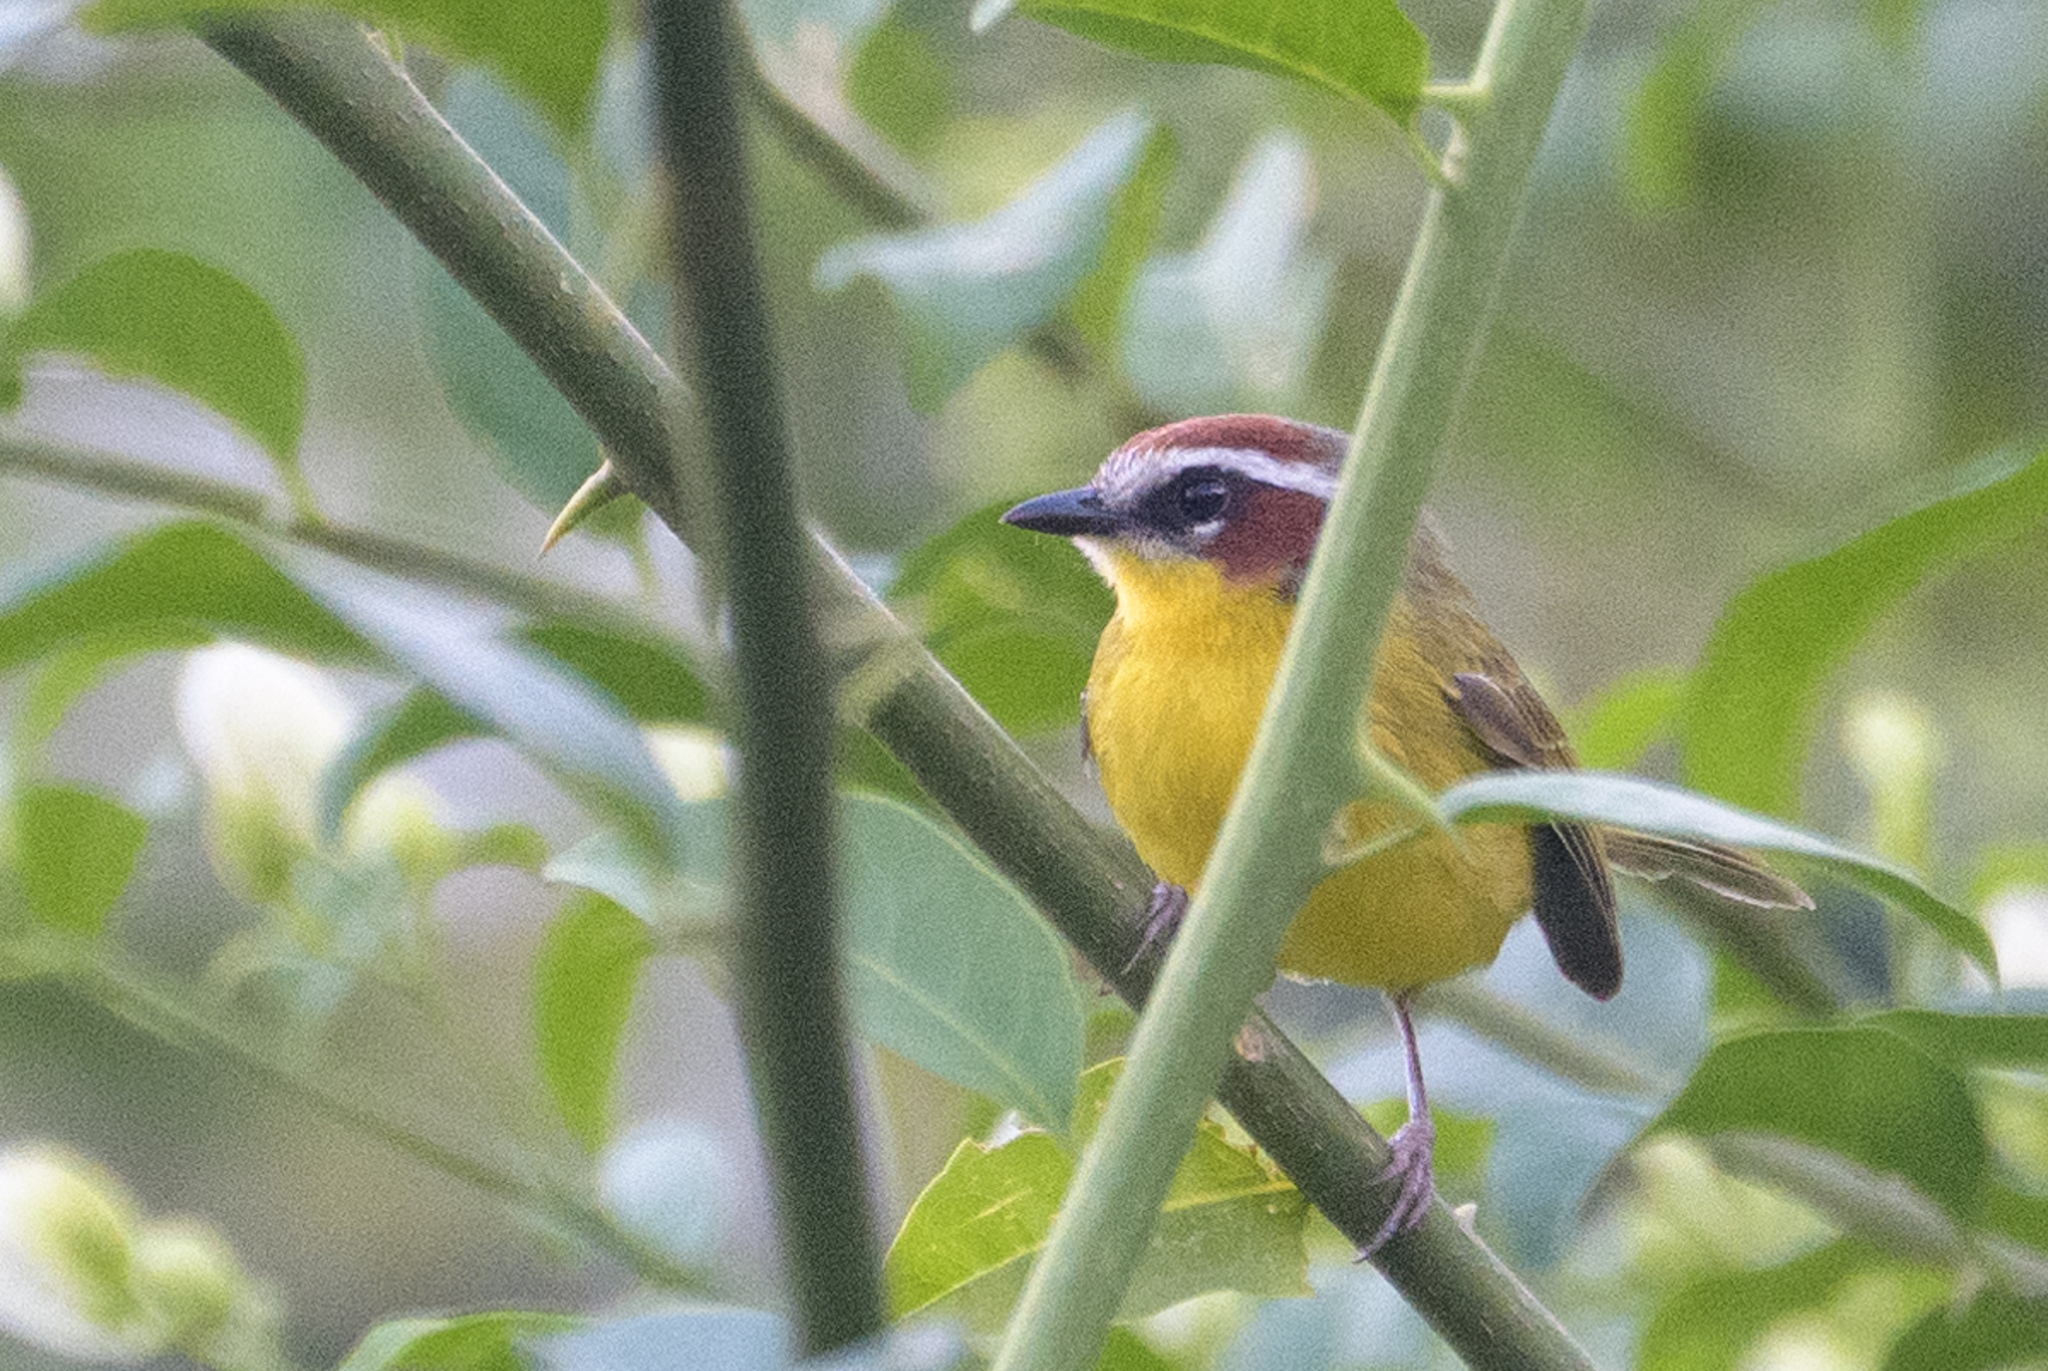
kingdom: Animalia
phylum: Chordata
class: Aves
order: Passeriformes
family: Parulidae
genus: Basileuterus
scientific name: Basileuterus rufifrons
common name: Rufous-capped warbler
